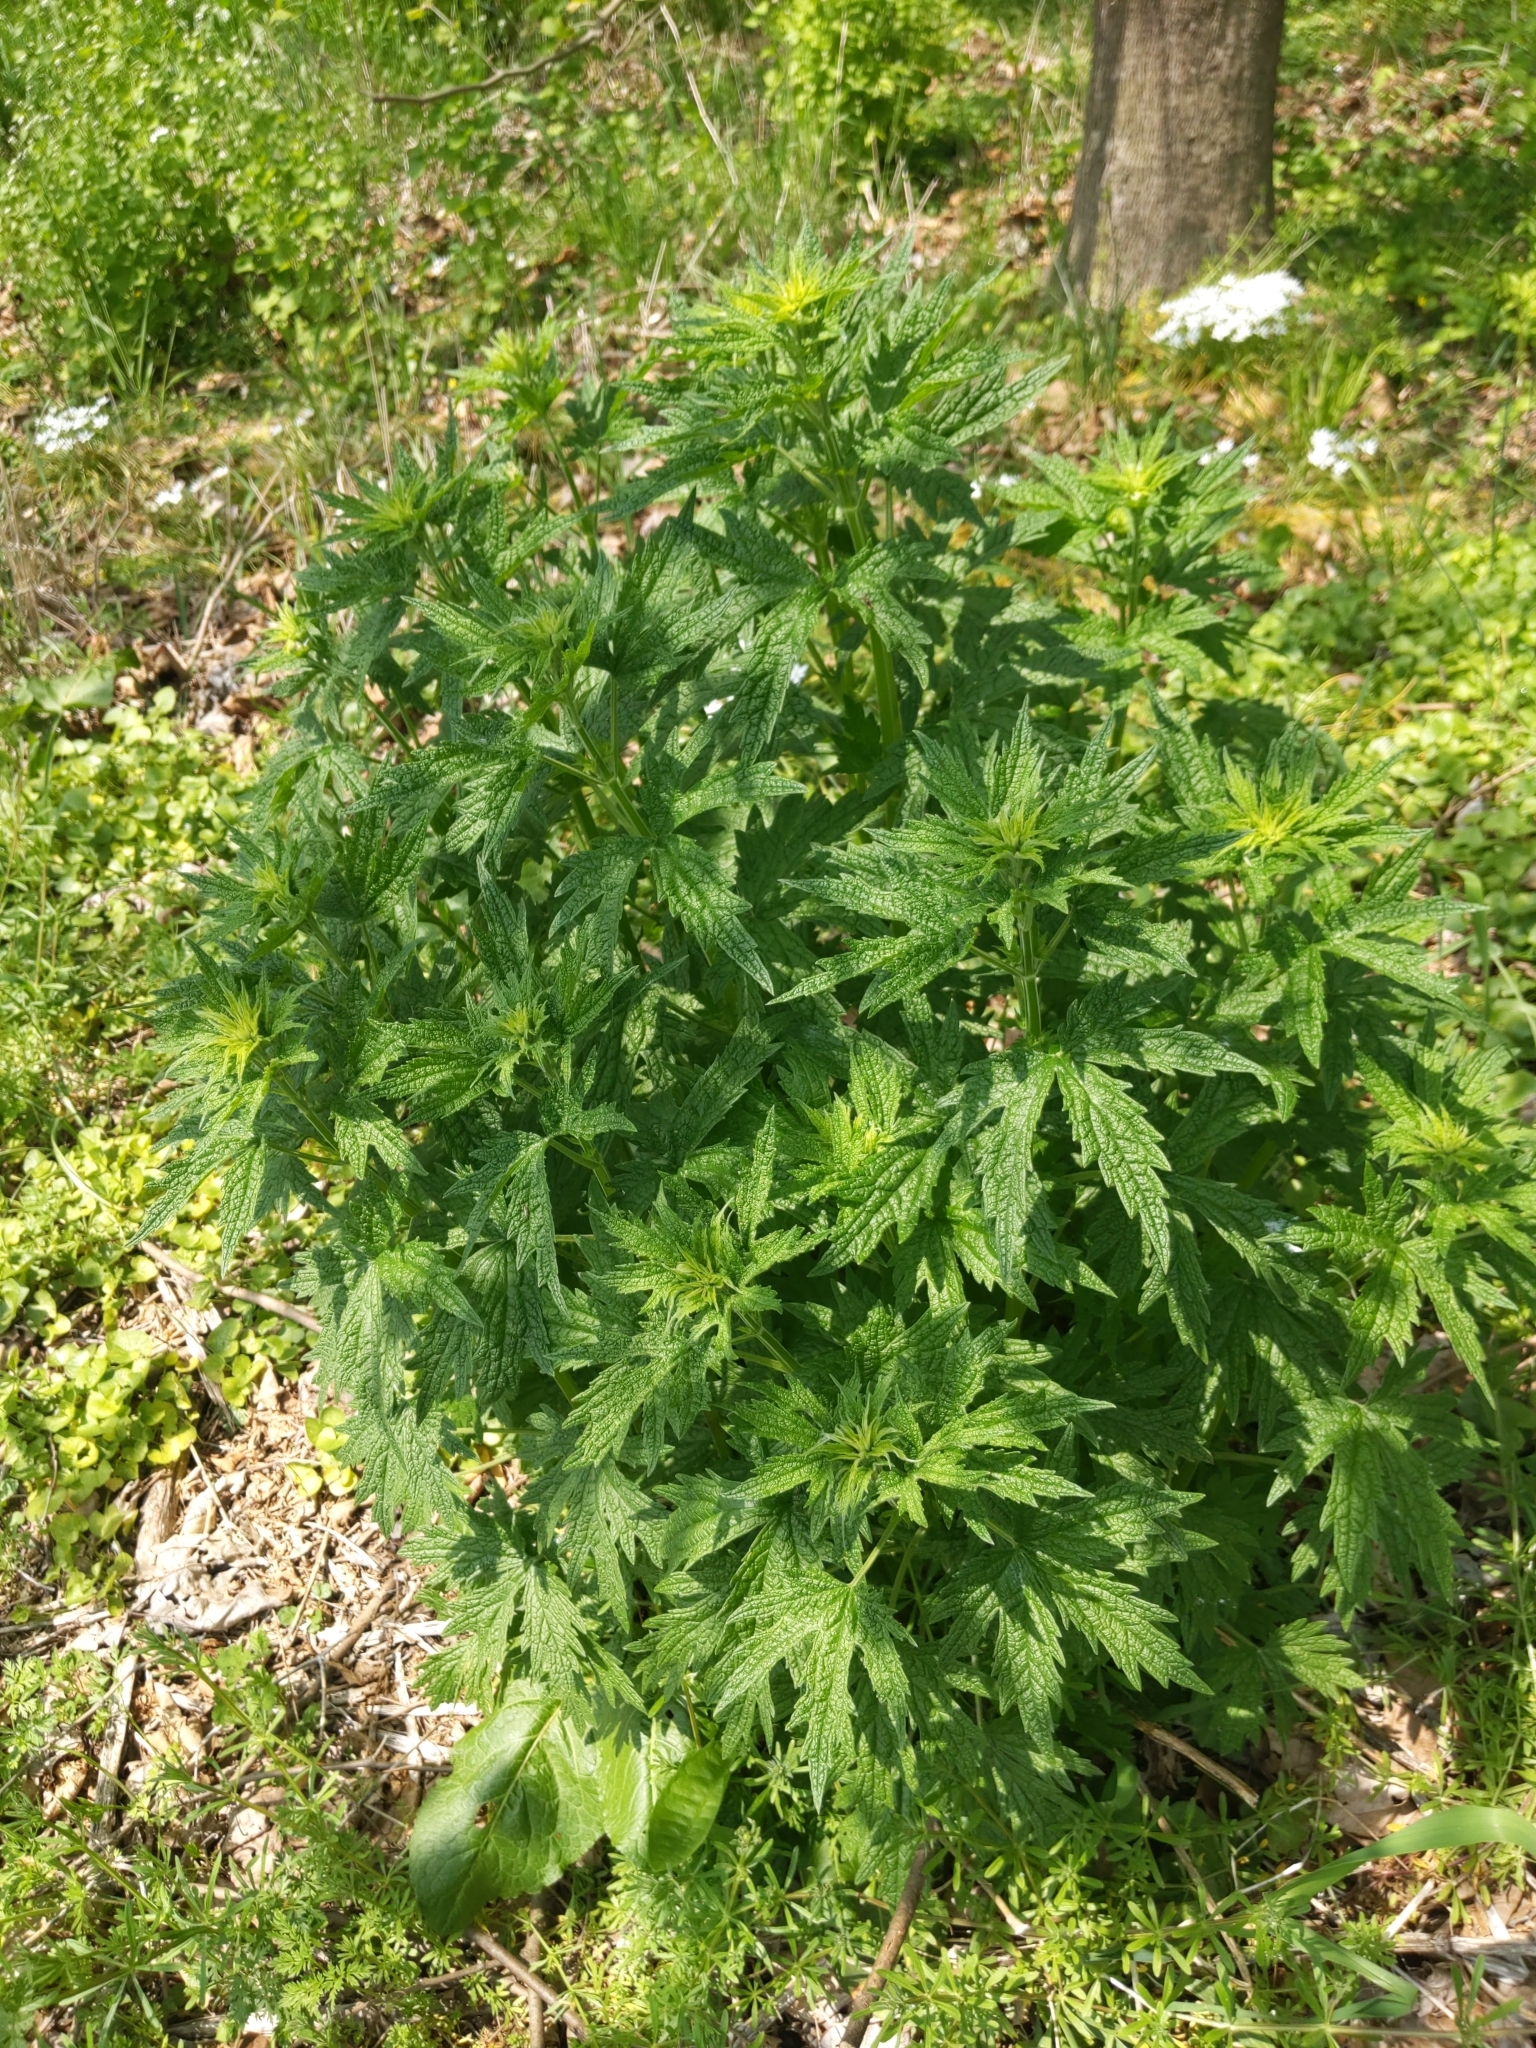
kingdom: Plantae
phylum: Tracheophyta
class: Magnoliopsida
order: Lamiales
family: Lamiaceae
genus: Leonurus
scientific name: Leonurus cardiaca
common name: Motherwort
